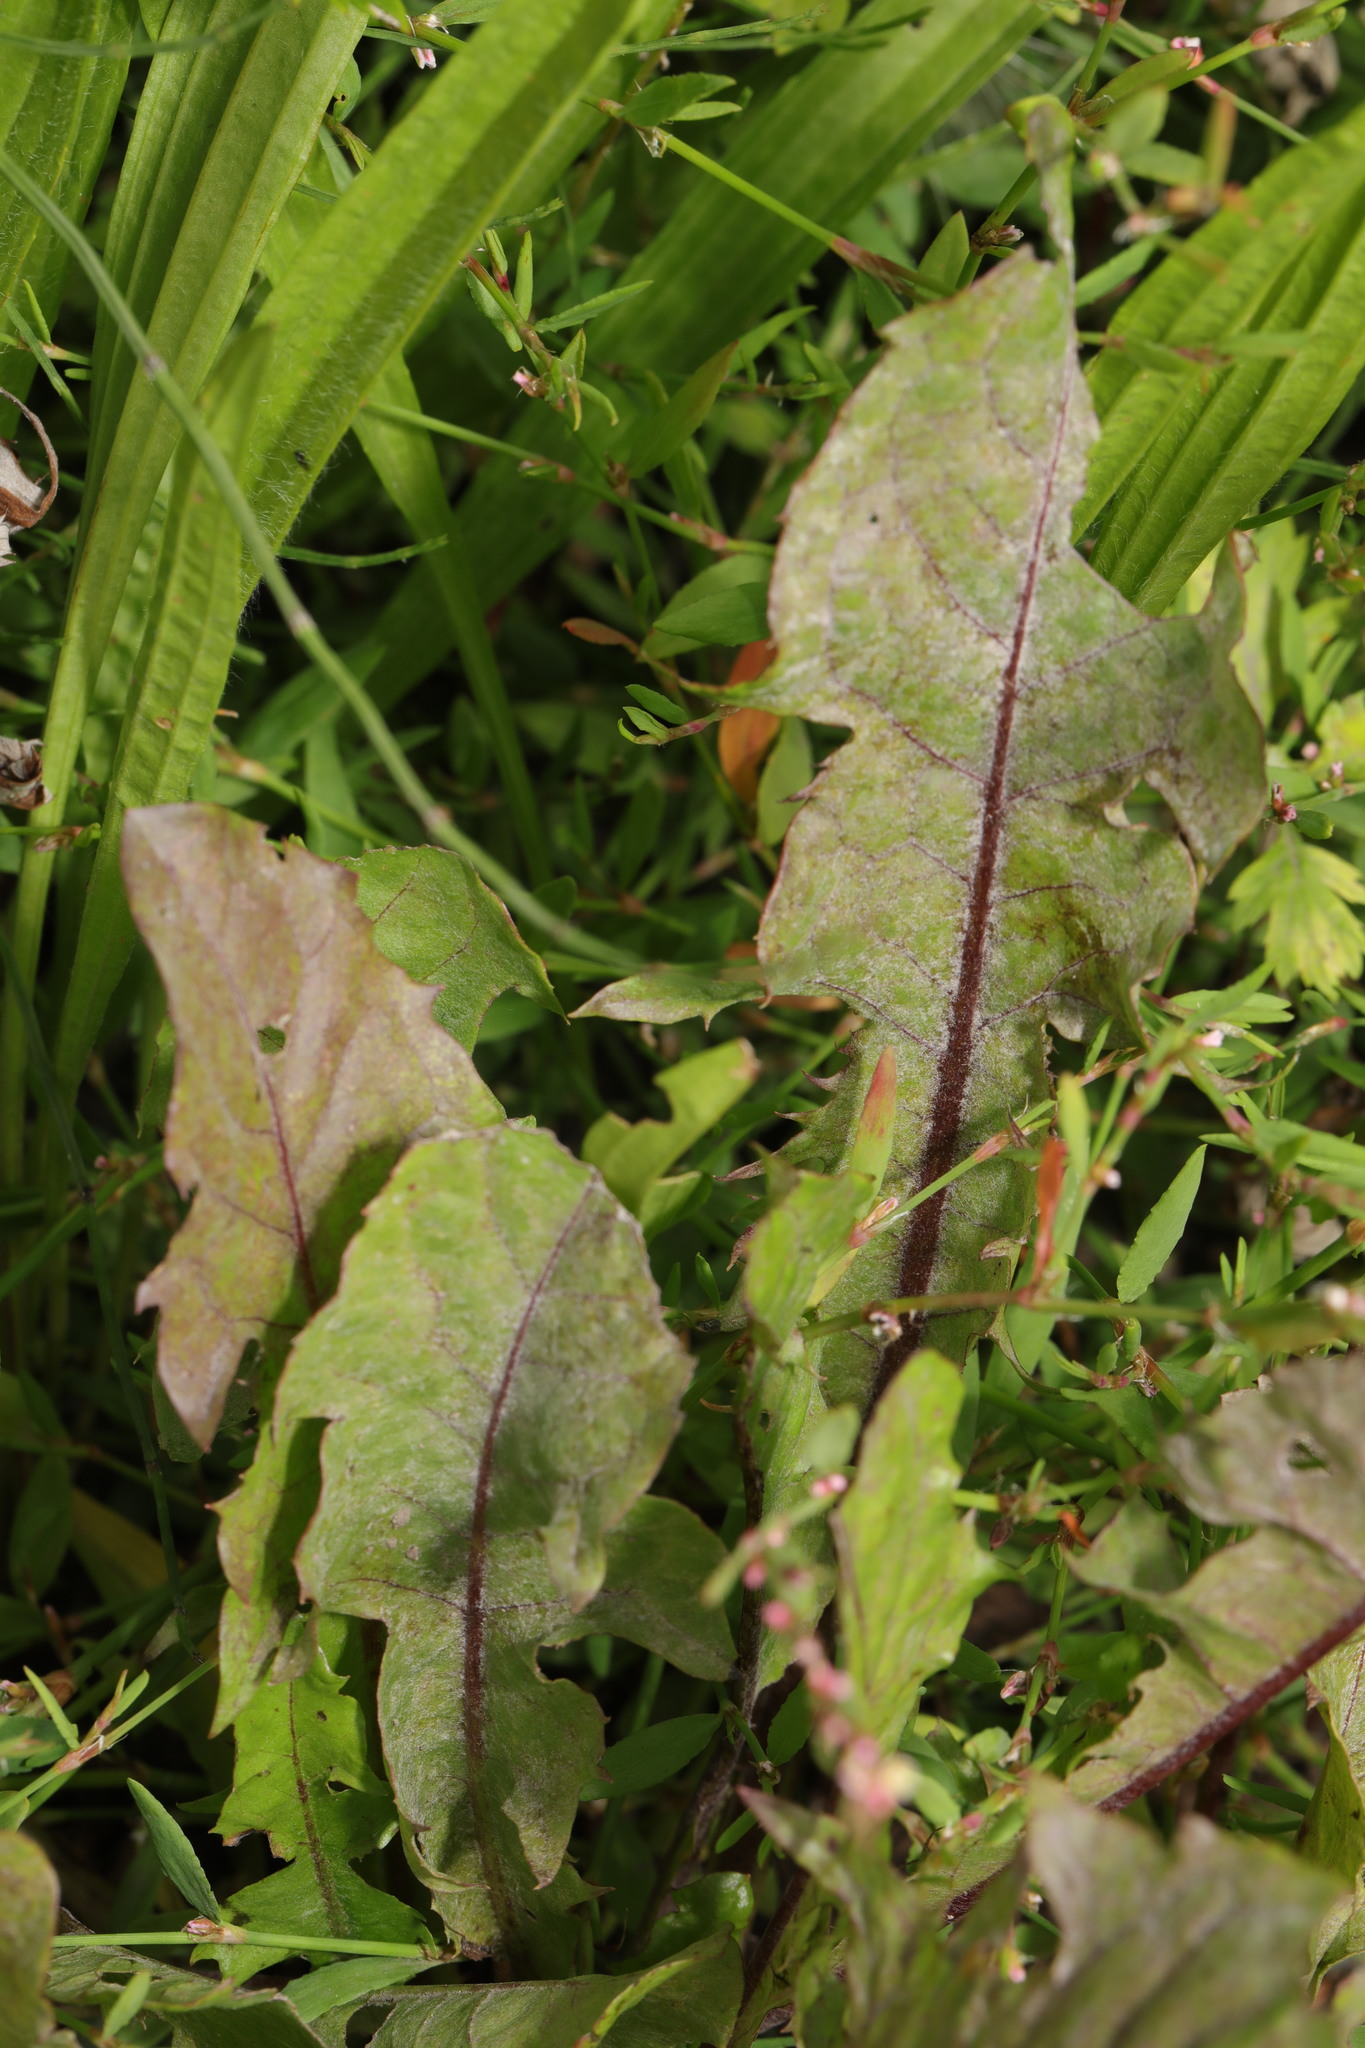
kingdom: Fungi
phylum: Ascomycota
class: Leotiomycetes
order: Helotiales
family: Erysiphaceae
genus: Podosphaera
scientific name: Podosphaera erigerontis-canadensis
